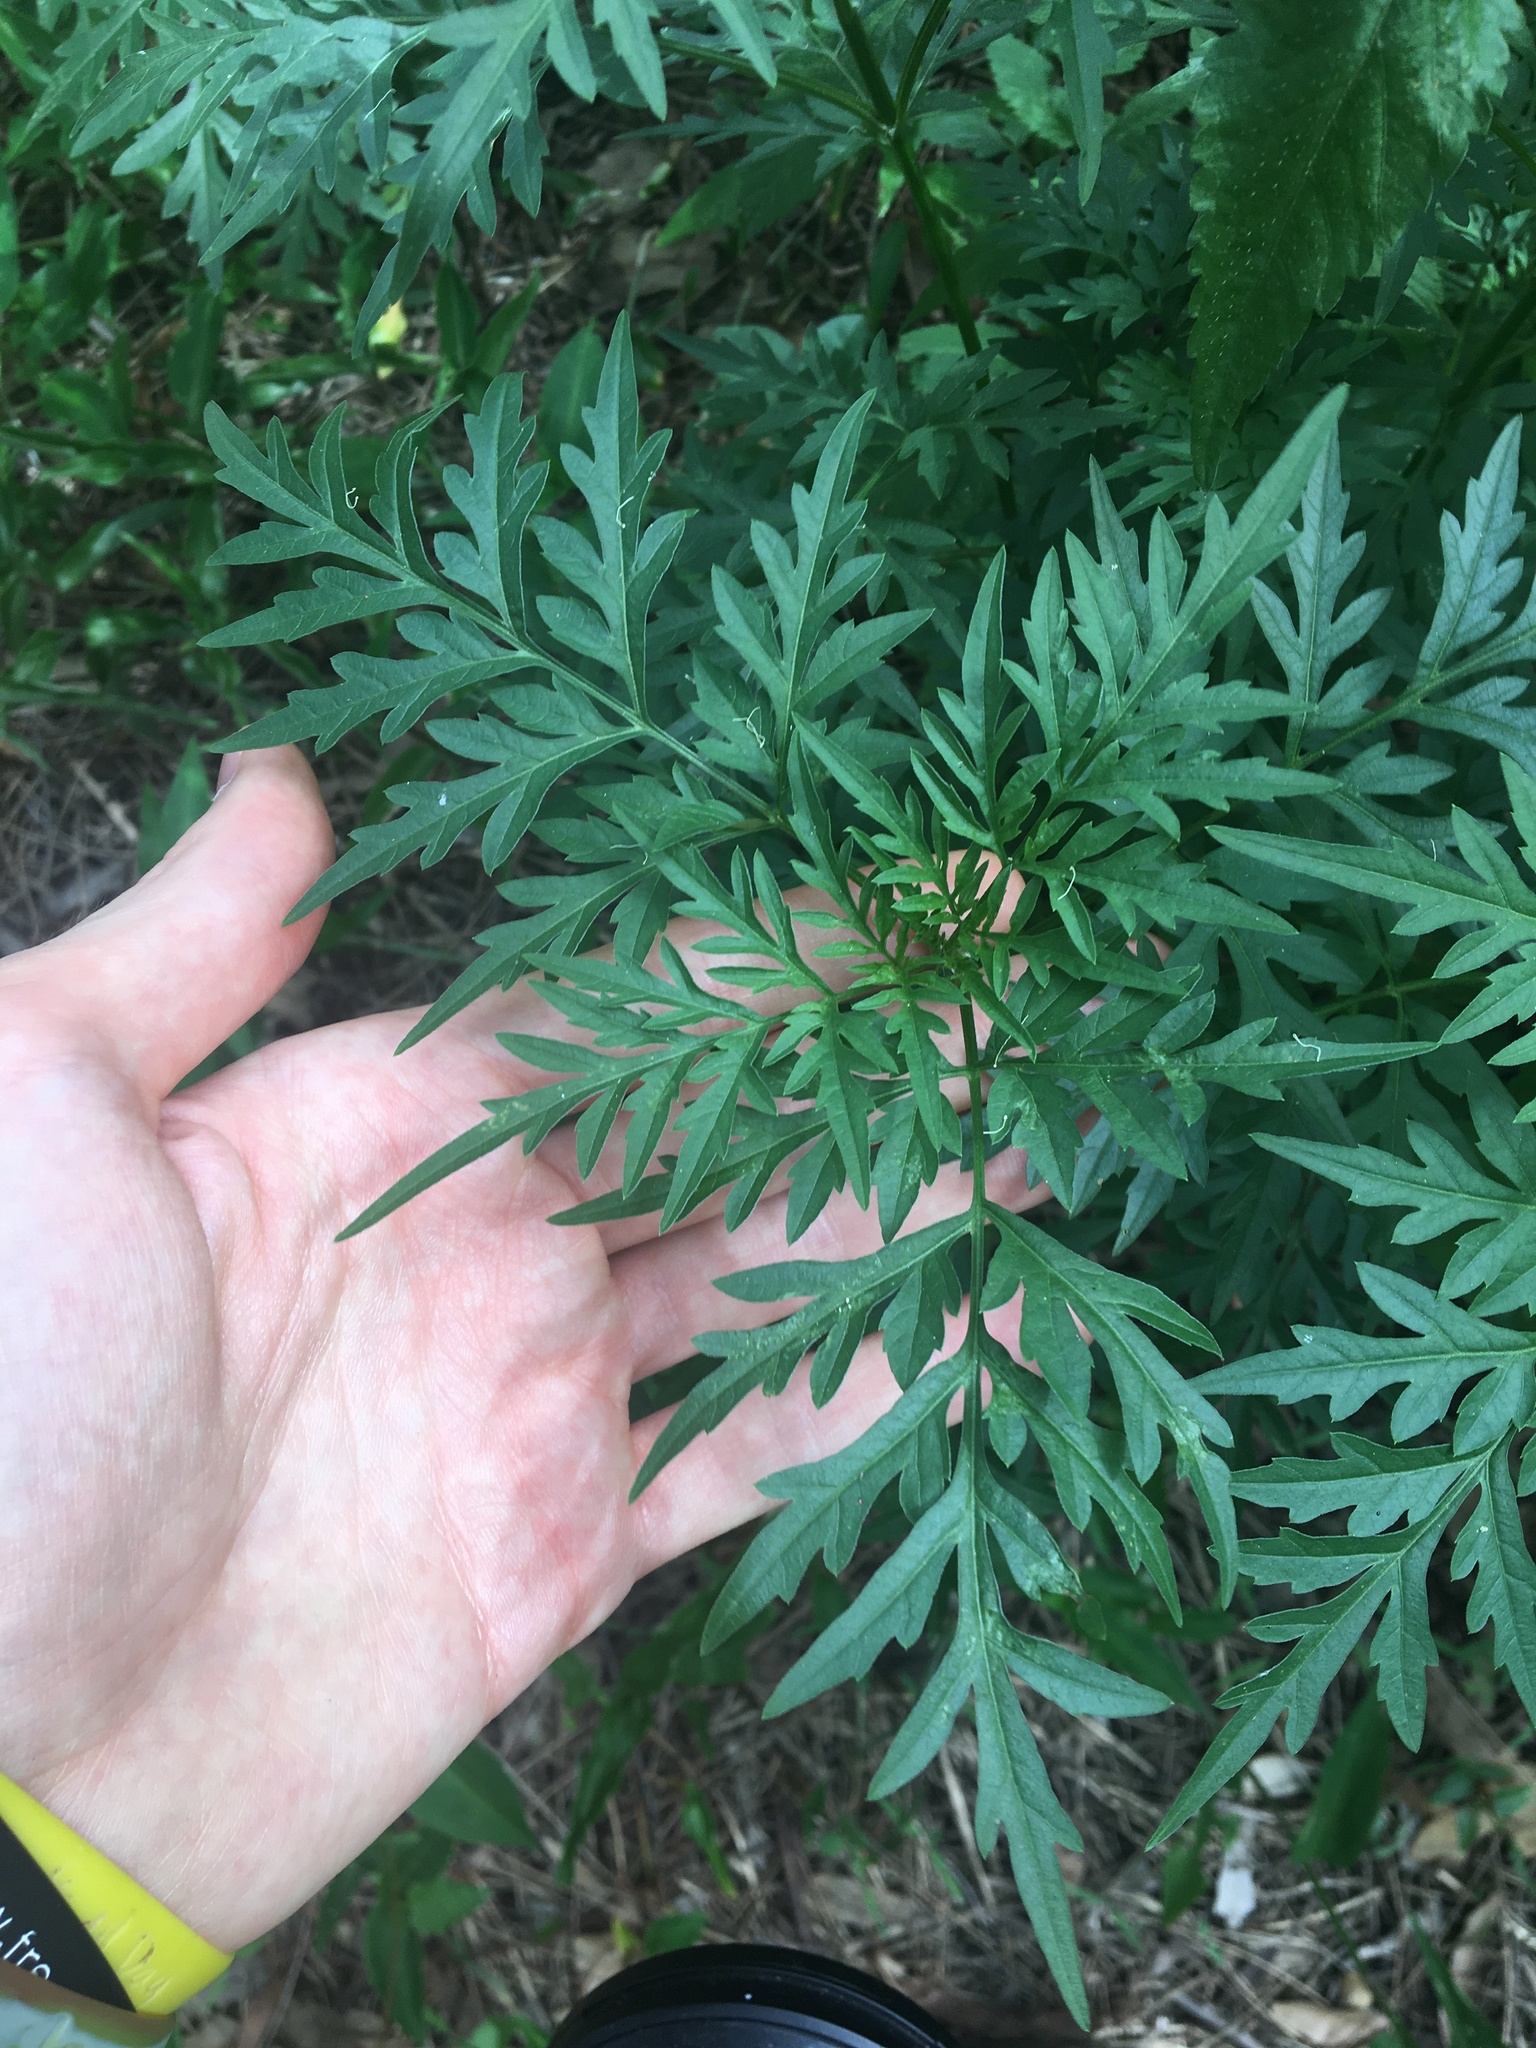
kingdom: Plantae
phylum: Tracheophyta
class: Magnoliopsida
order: Asterales
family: Asteraceae
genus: Bidens
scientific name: Bidens subalternans
